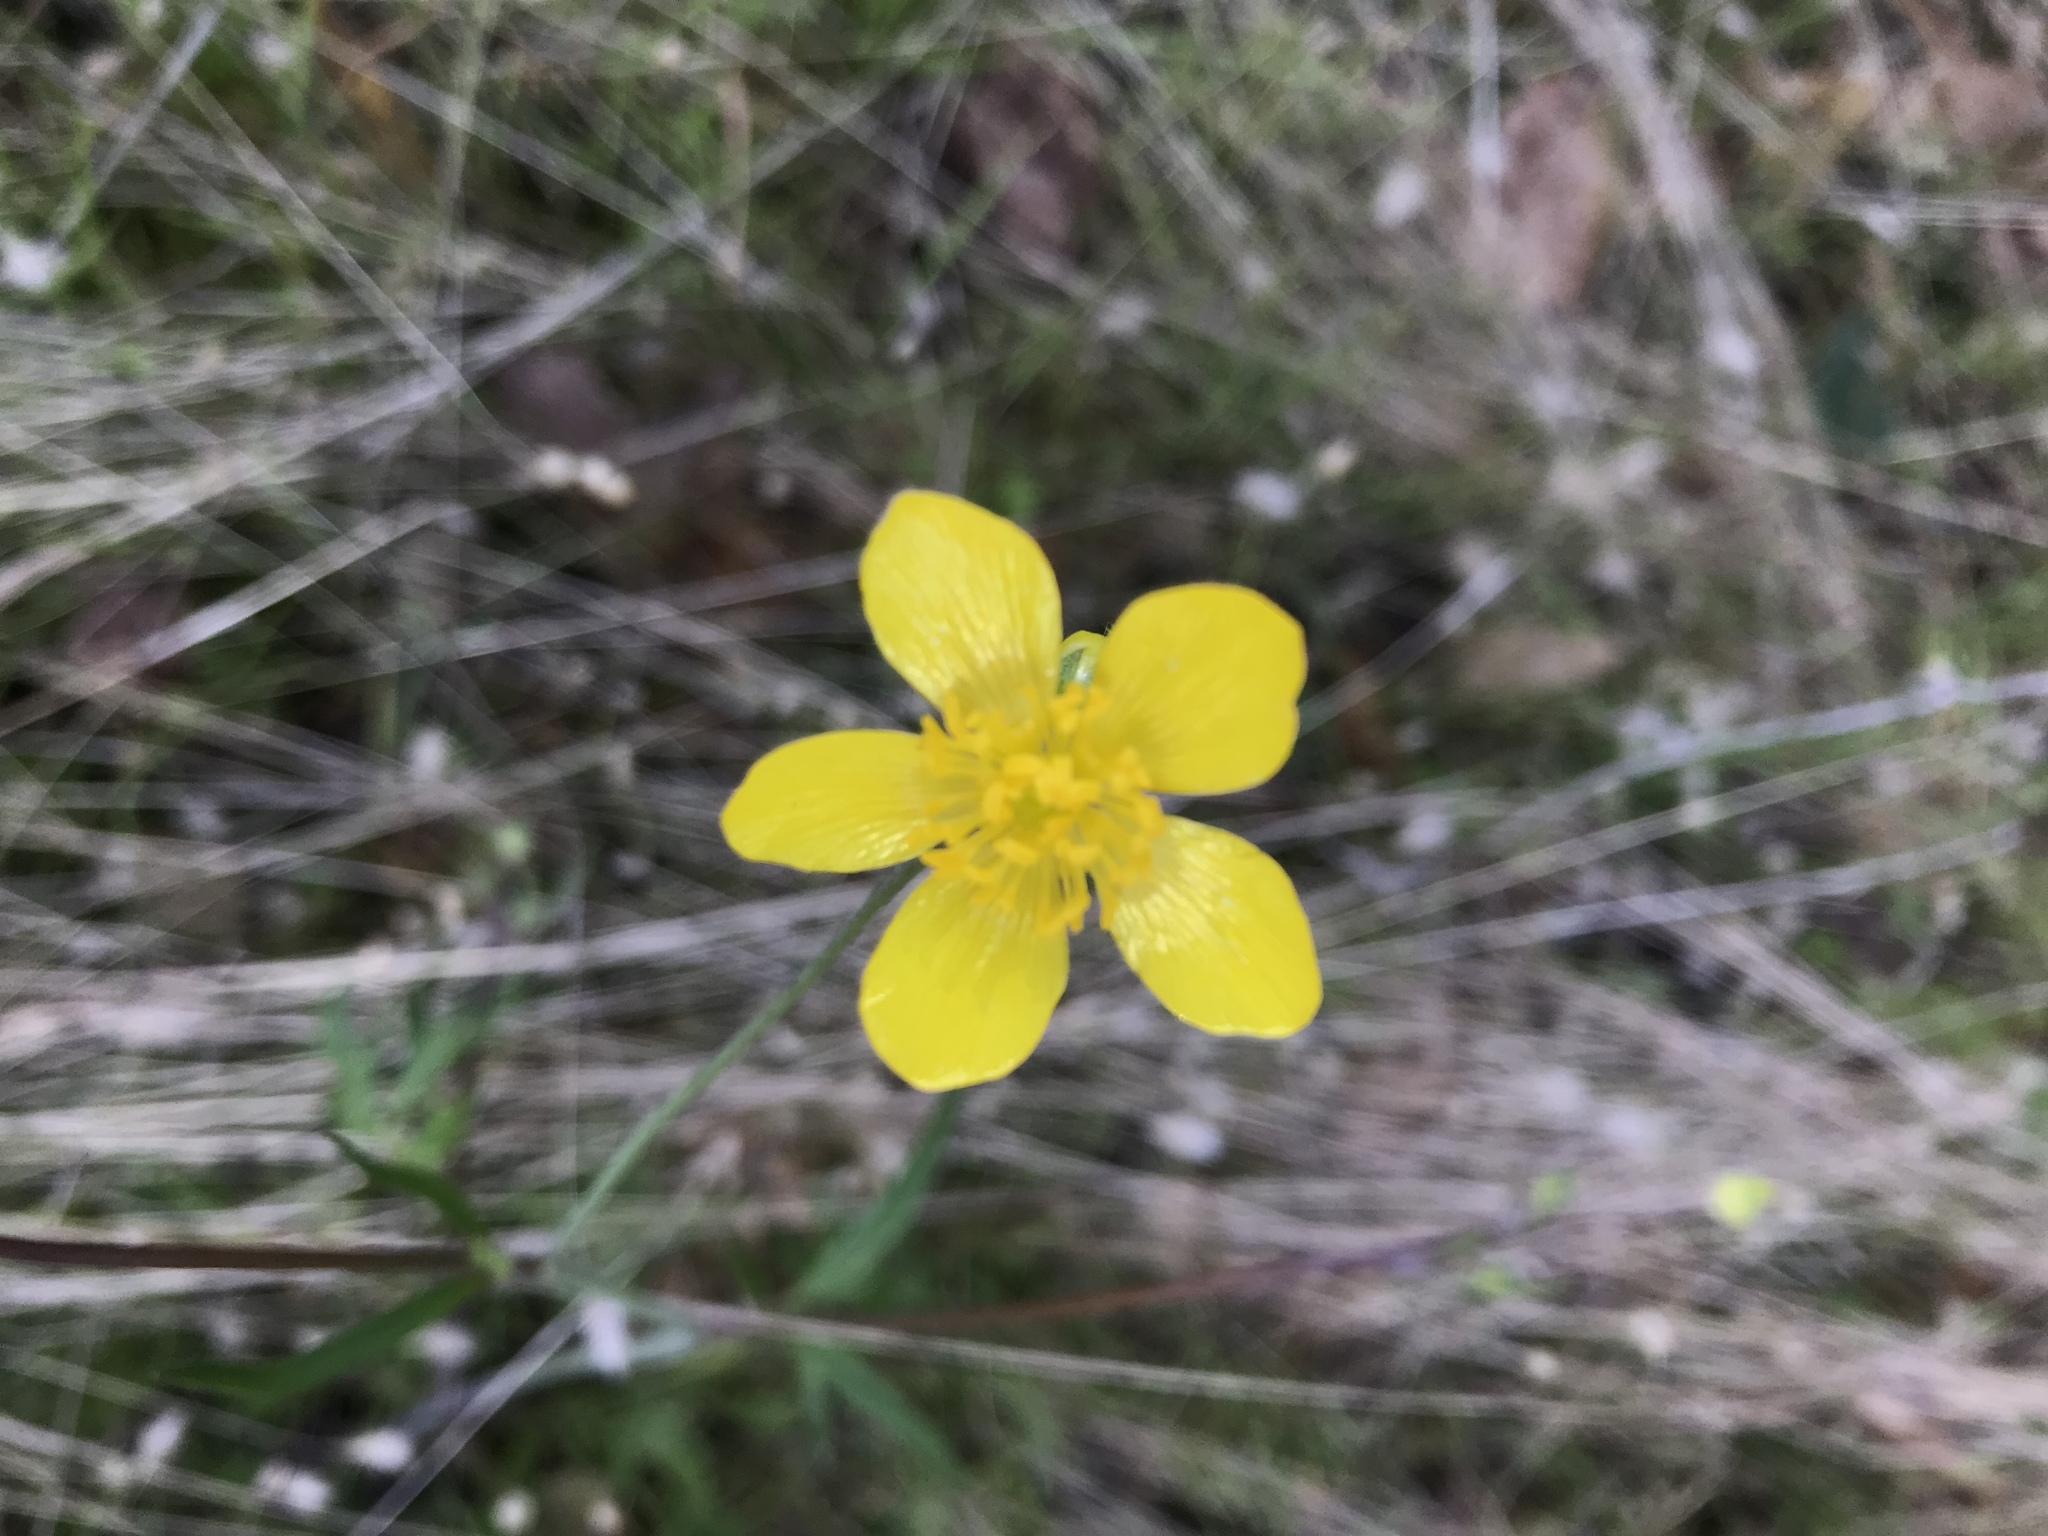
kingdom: Plantae
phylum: Tracheophyta
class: Magnoliopsida
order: Ranunculales
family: Ranunculaceae
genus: Ranunculus
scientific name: Ranunculus occidentalis
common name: Western buttercup
